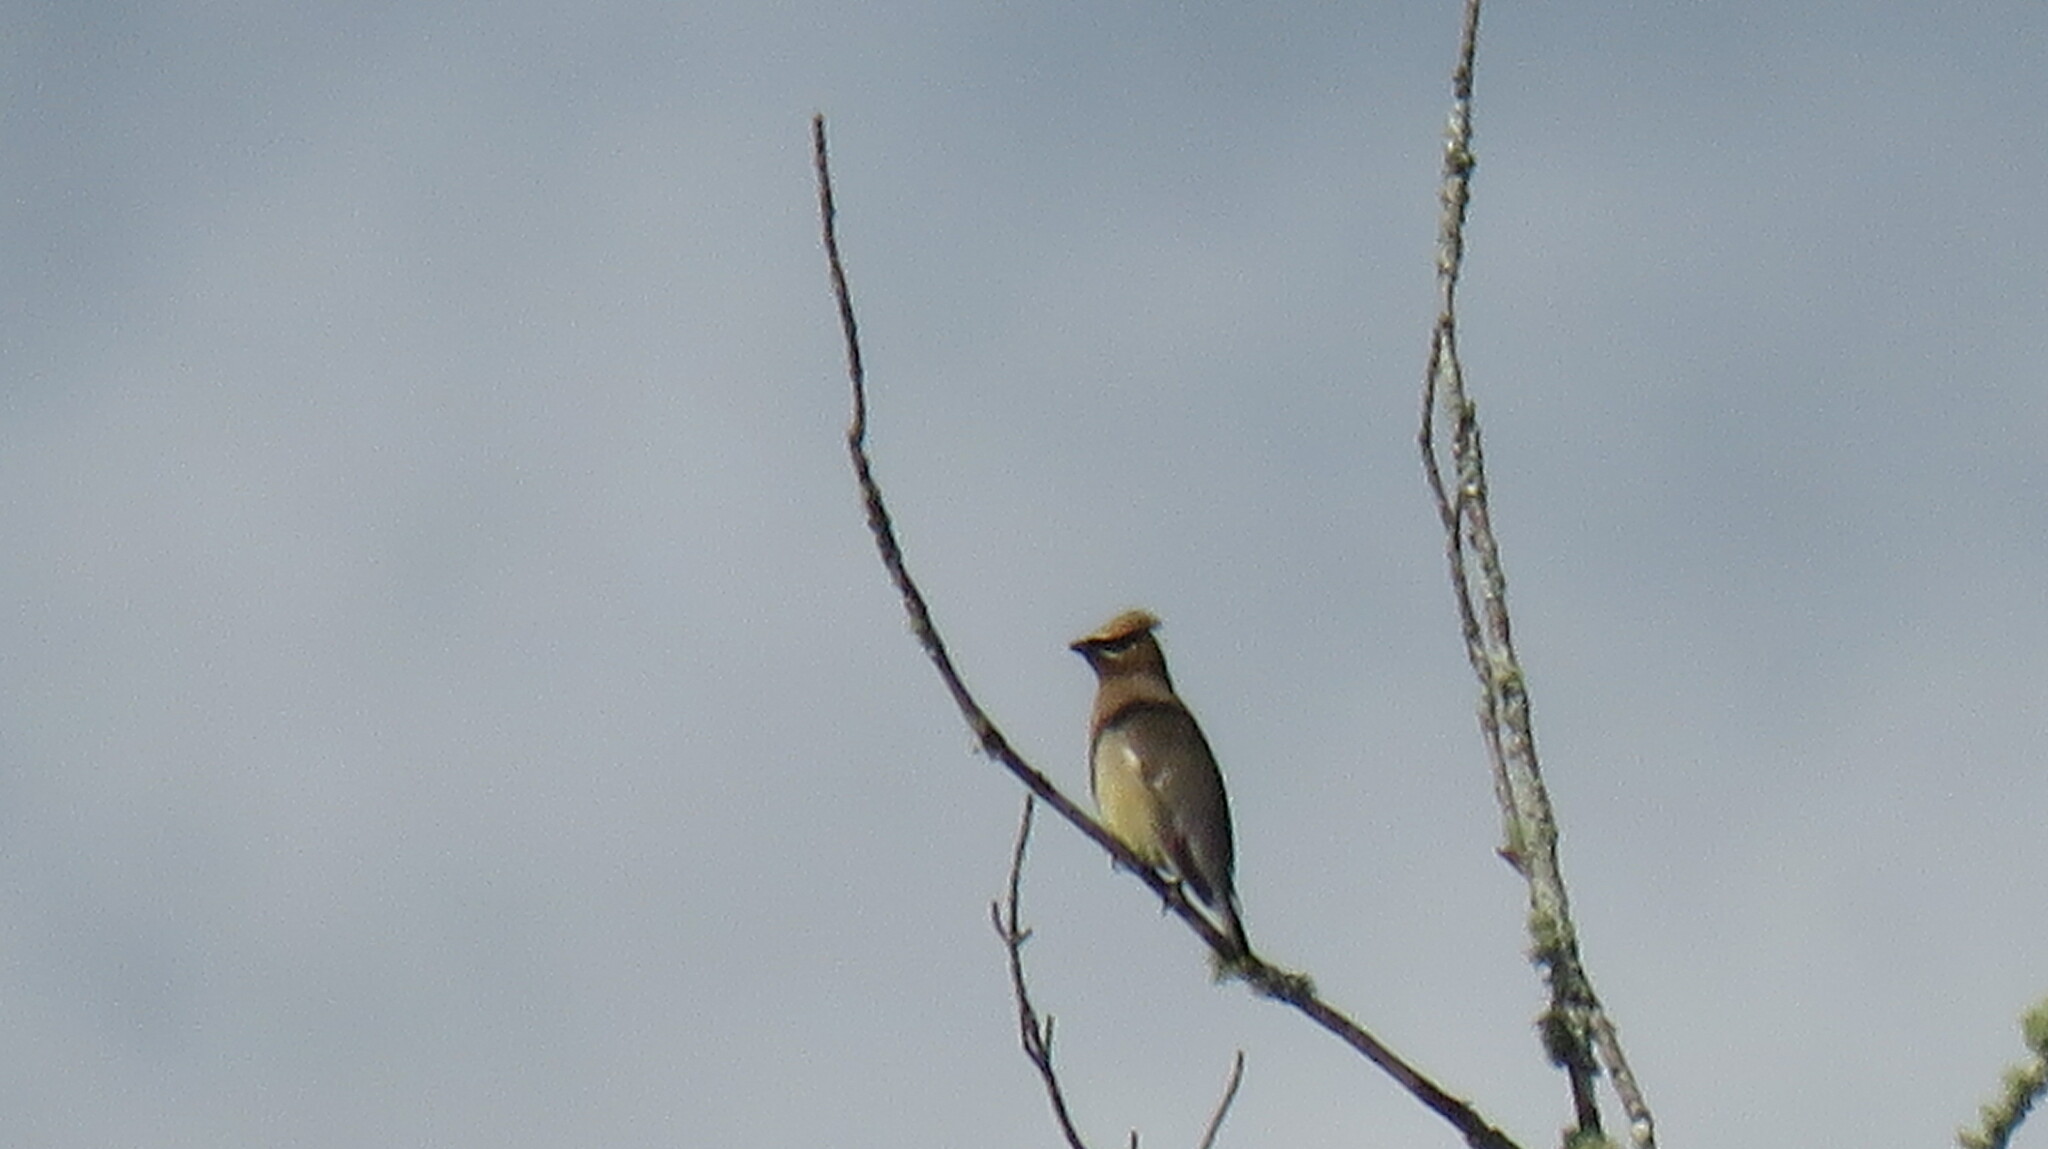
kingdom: Animalia
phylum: Chordata
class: Aves
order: Passeriformes
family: Bombycillidae
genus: Bombycilla
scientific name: Bombycilla cedrorum
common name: Cedar waxwing
